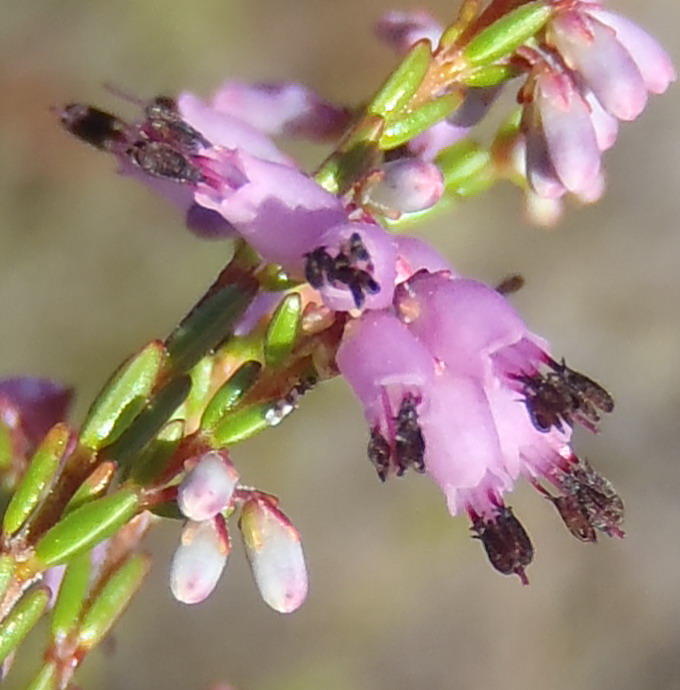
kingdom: Plantae
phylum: Tracheophyta
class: Magnoliopsida
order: Ericales
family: Ericaceae
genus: Erica
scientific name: Erica rosacea
